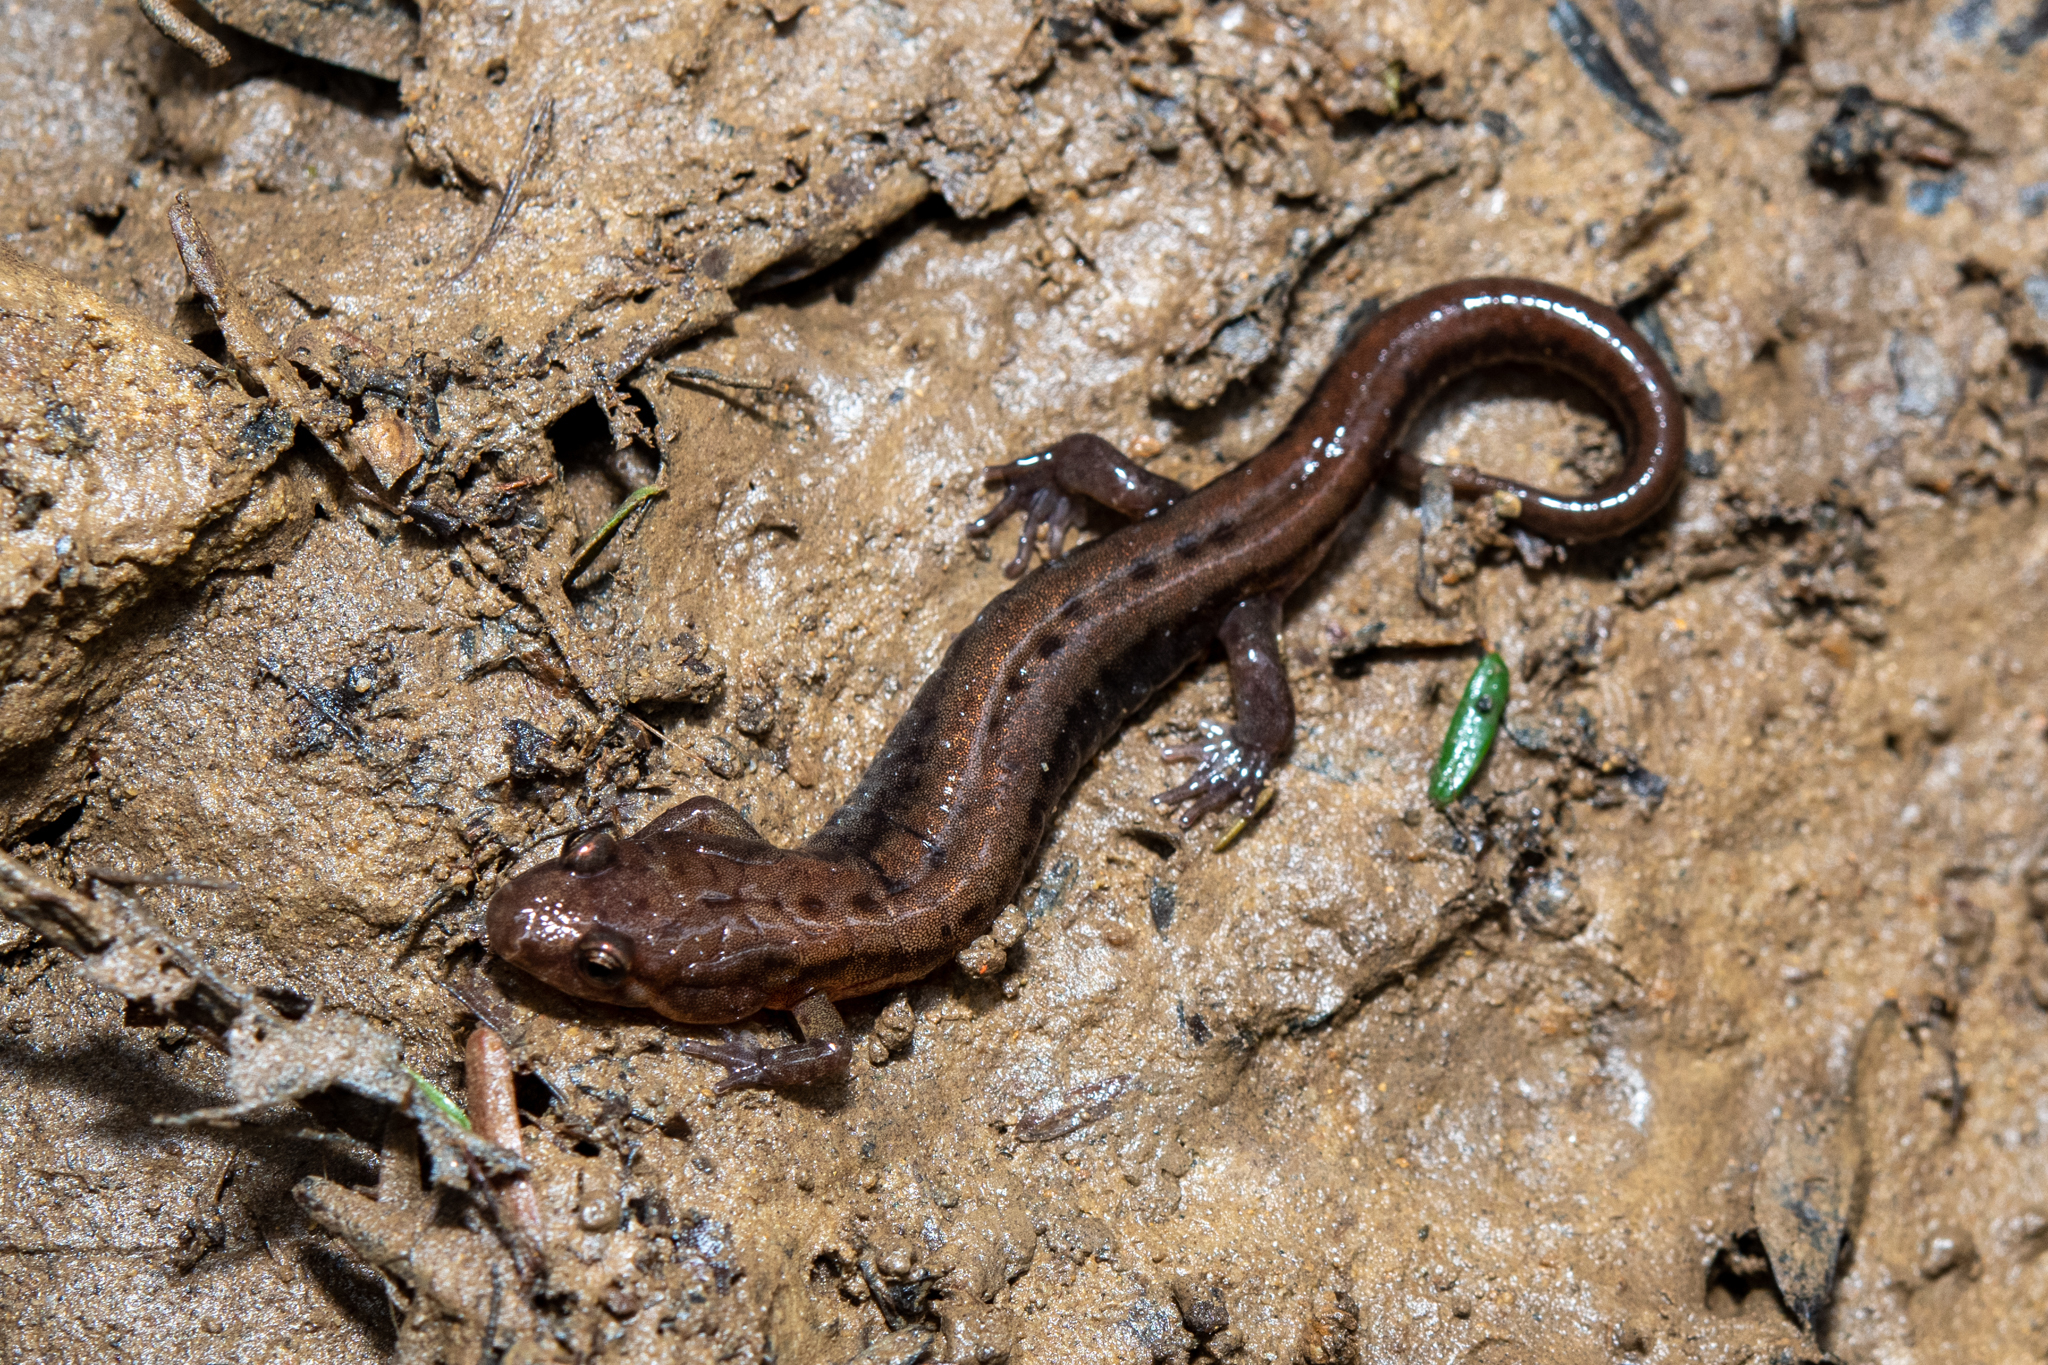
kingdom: Animalia
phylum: Chordata
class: Amphibia
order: Caudata
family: Plethodontidae
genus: Desmognathus
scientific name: Desmognathus ochrophaeus
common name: Allegheny mountain dusky salamander
